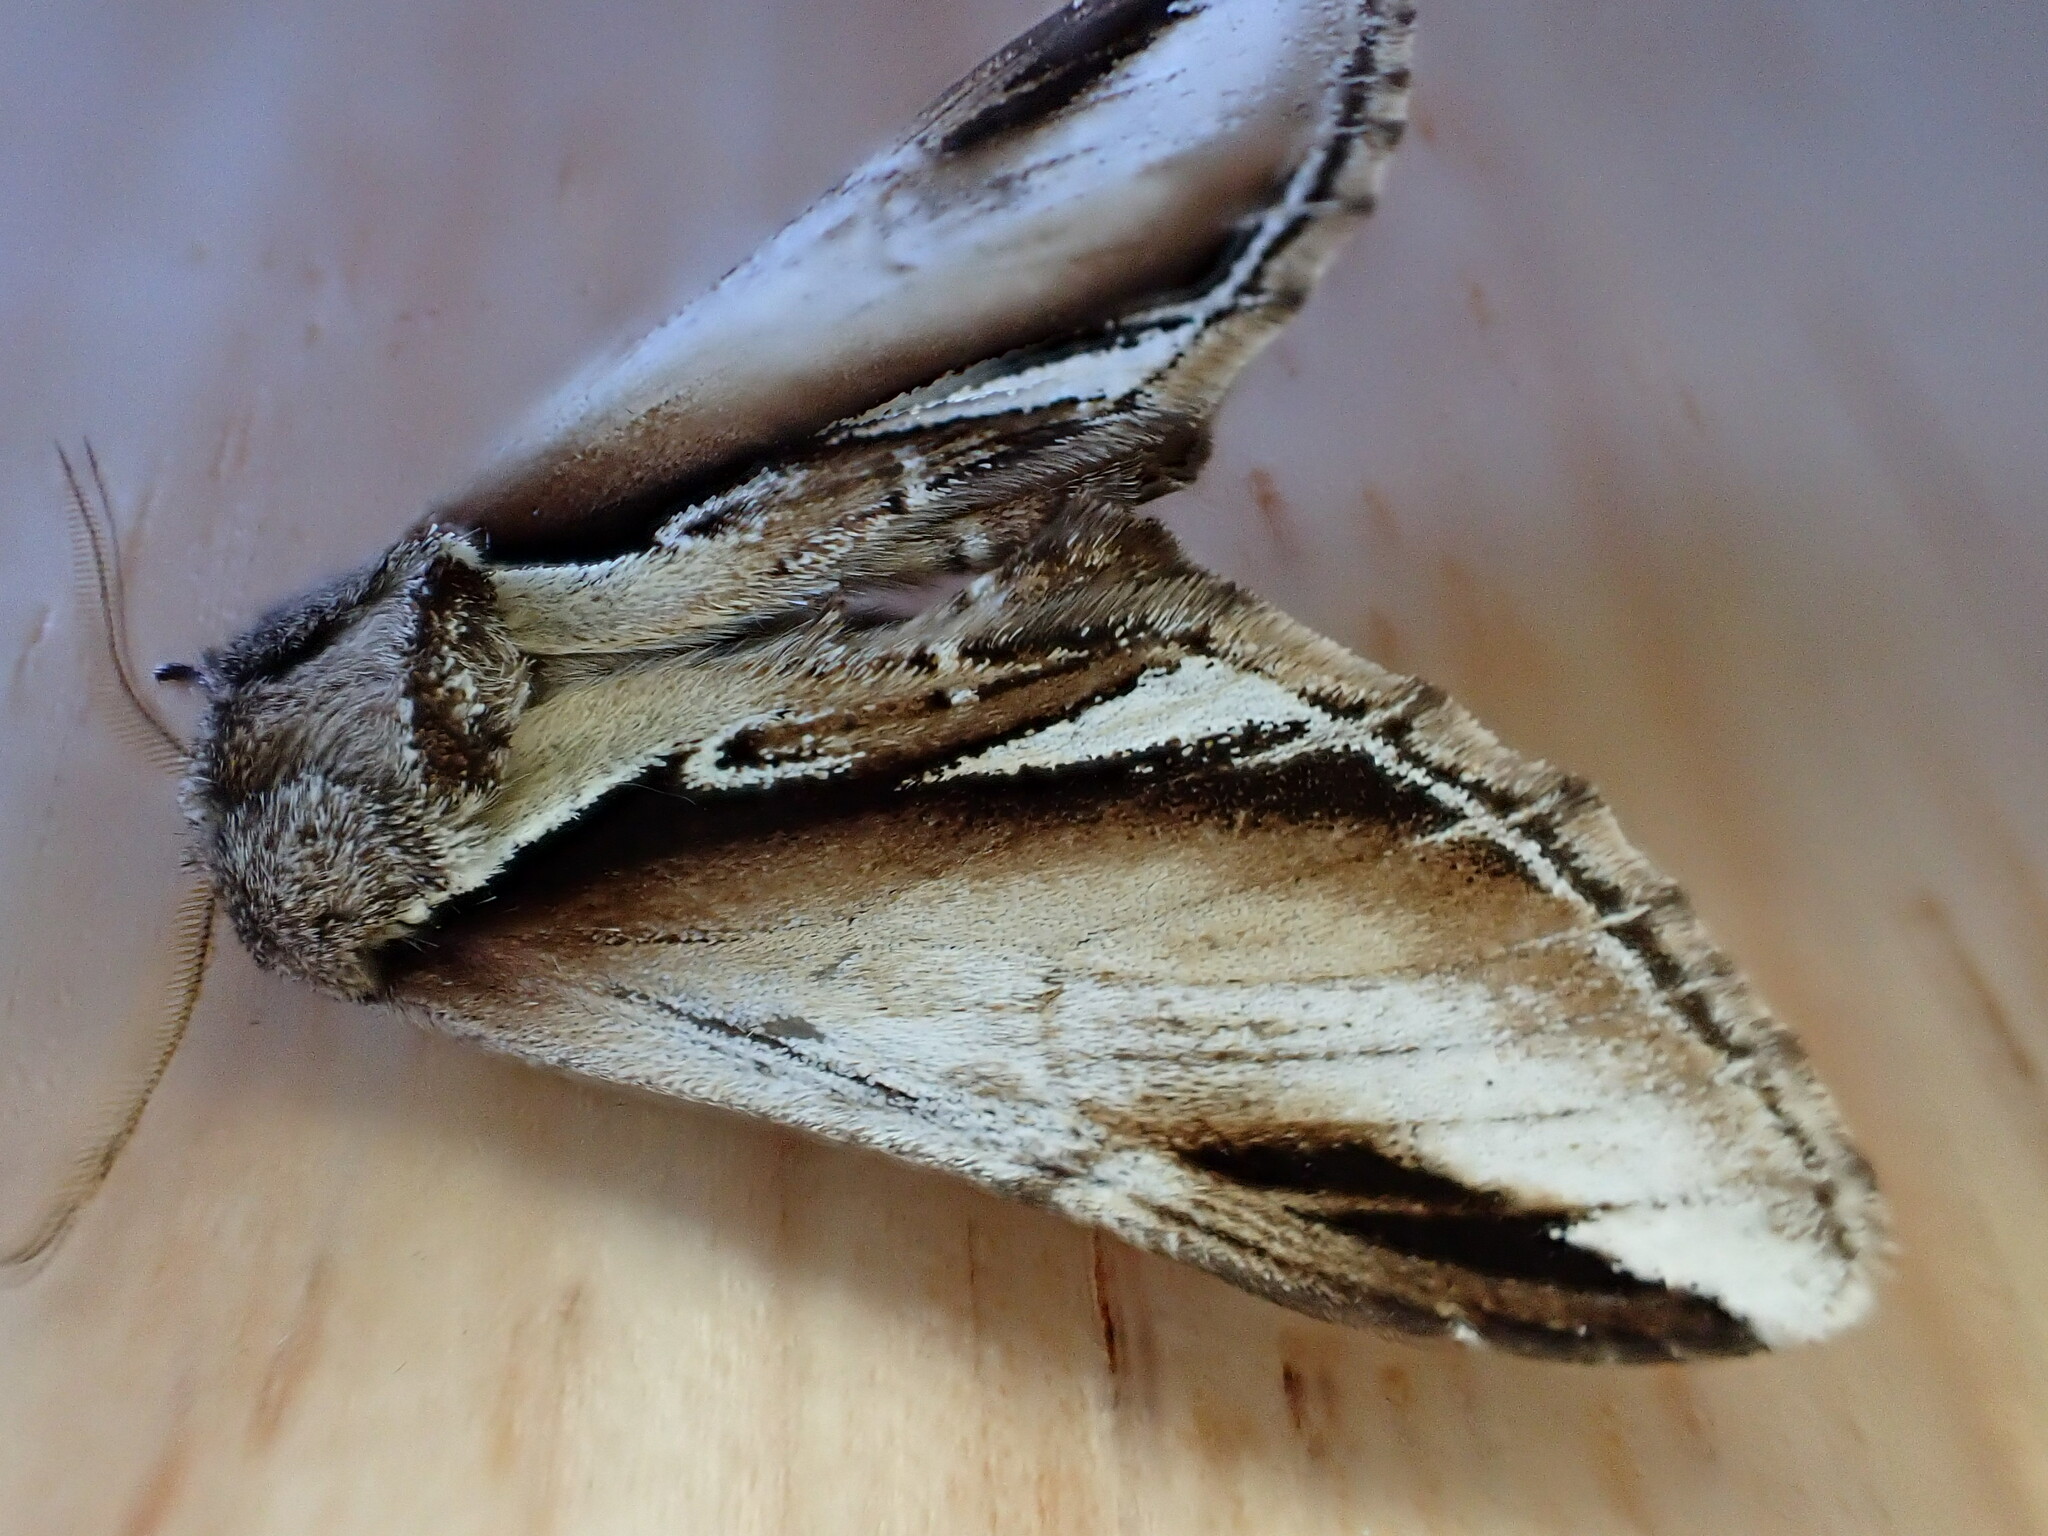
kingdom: Animalia
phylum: Arthropoda
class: Insecta
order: Lepidoptera
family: Notodontidae
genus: Pheosia
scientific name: Pheosia gnoma
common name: Lesser swallow prominent
